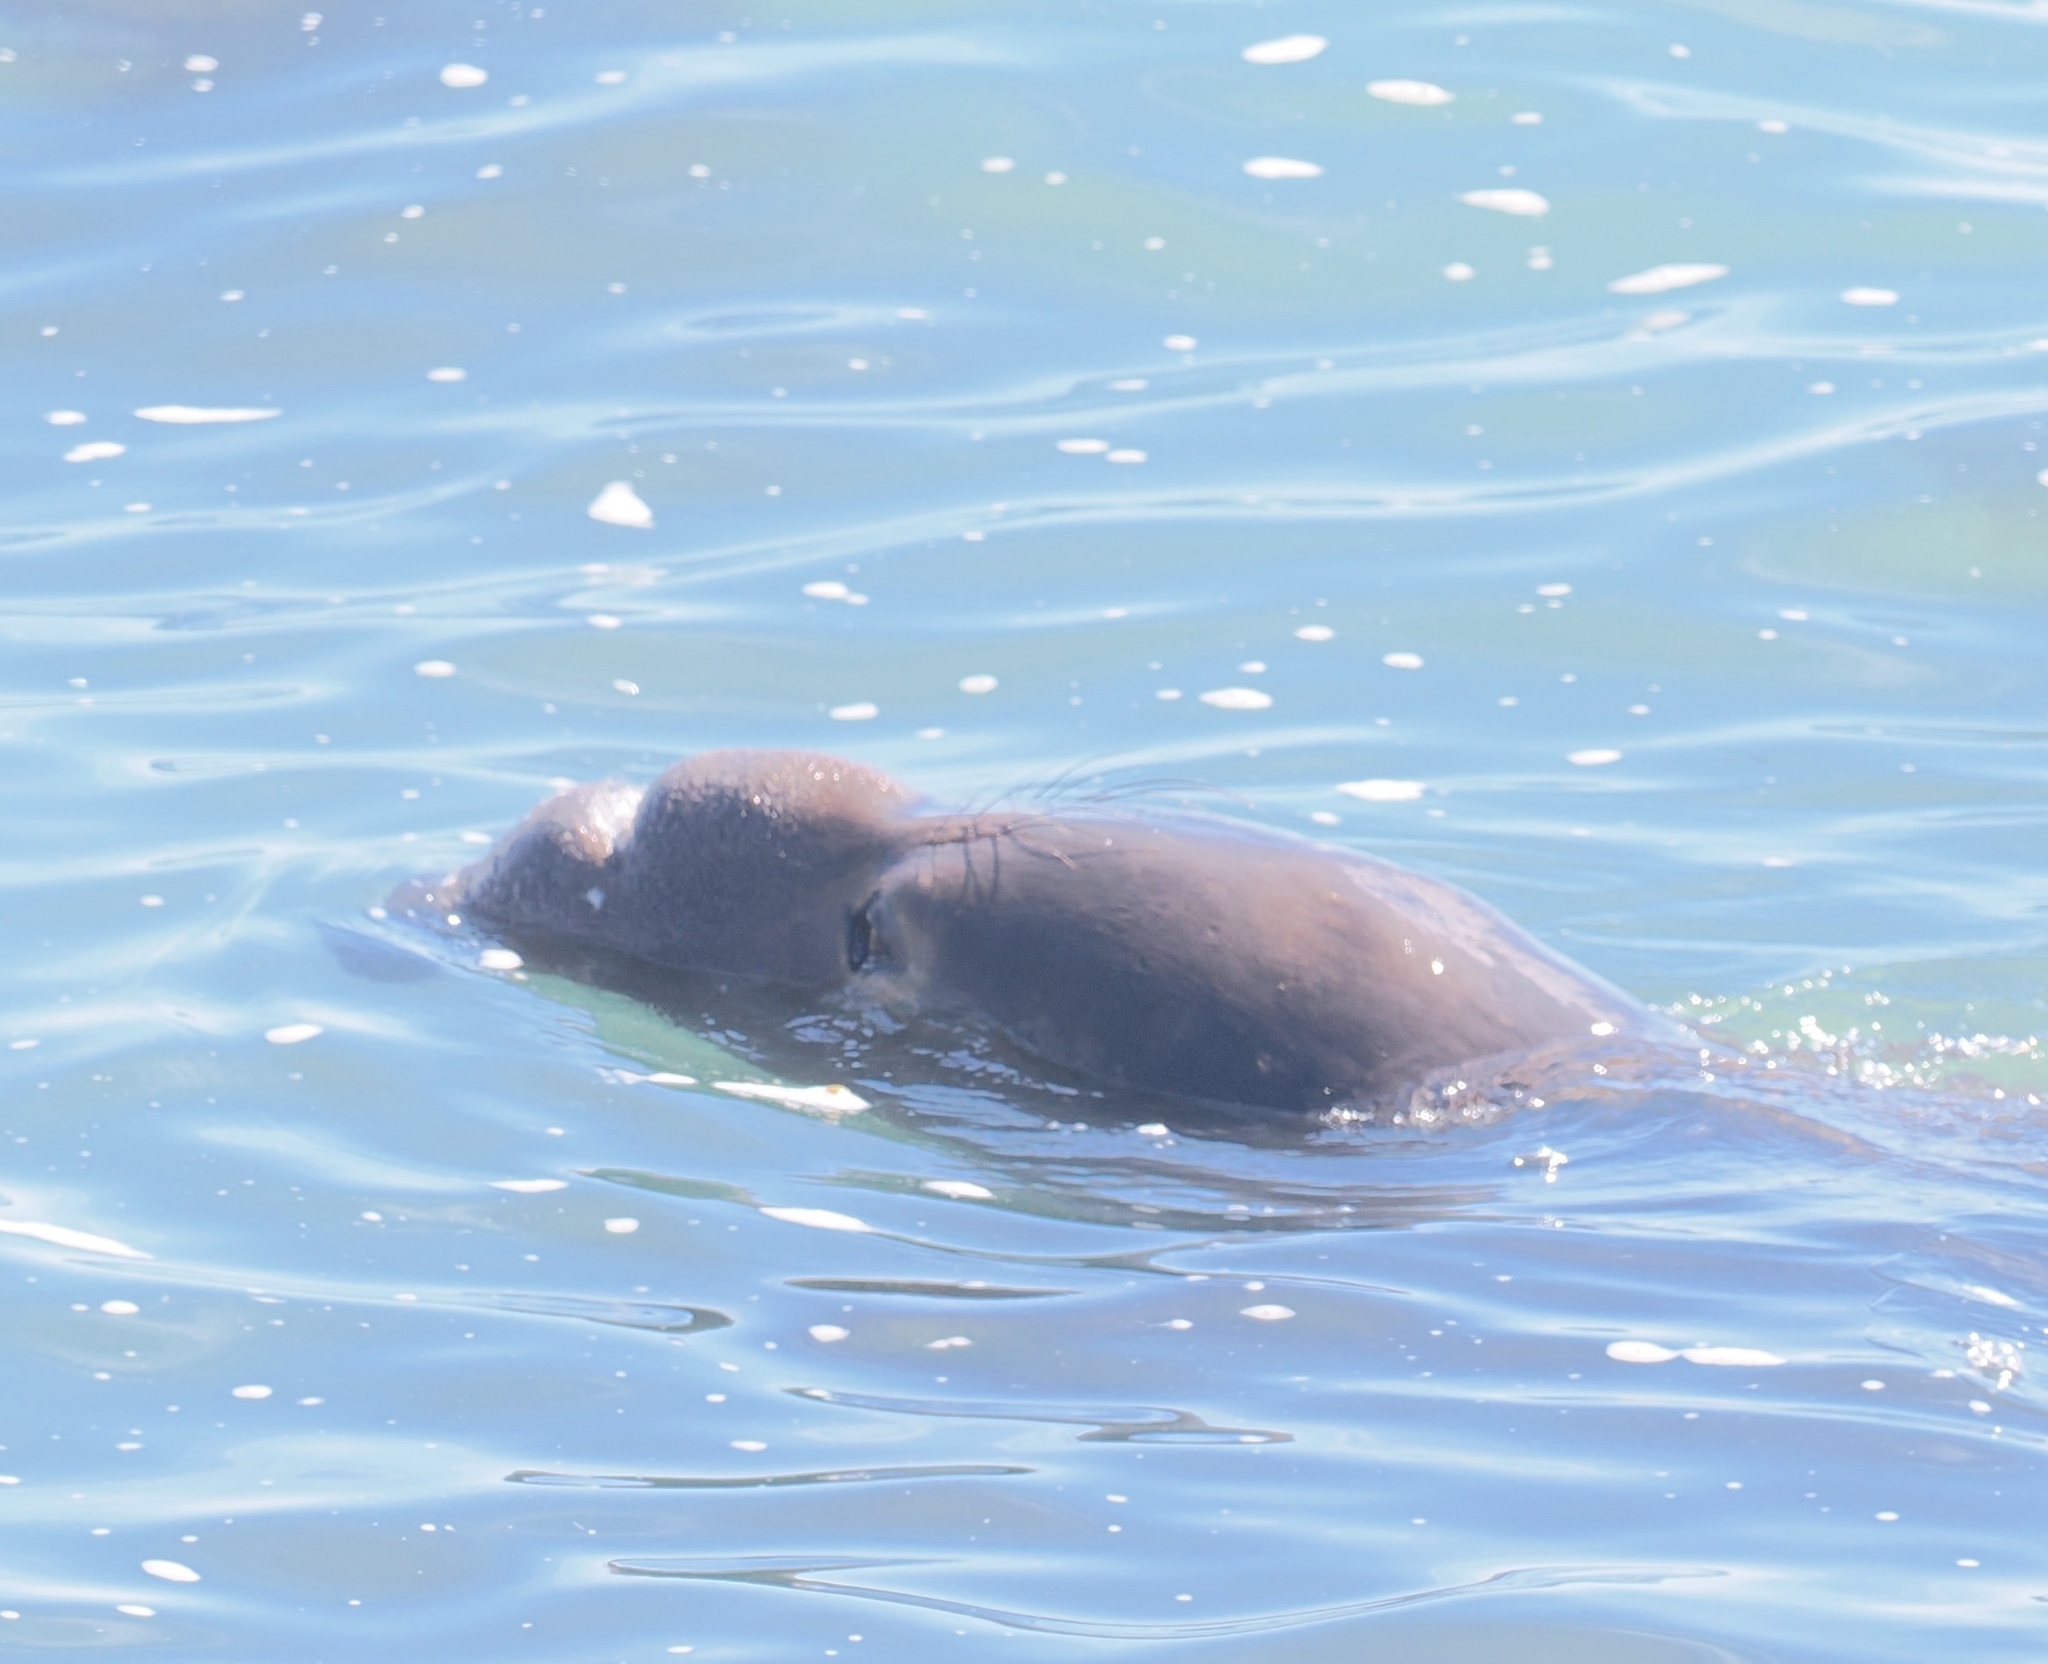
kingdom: Animalia
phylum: Chordata
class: Mammalia
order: Carnivora
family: Phocidae
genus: Mirounga
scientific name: Mirounga angustirostris
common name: Northern elephant seal
